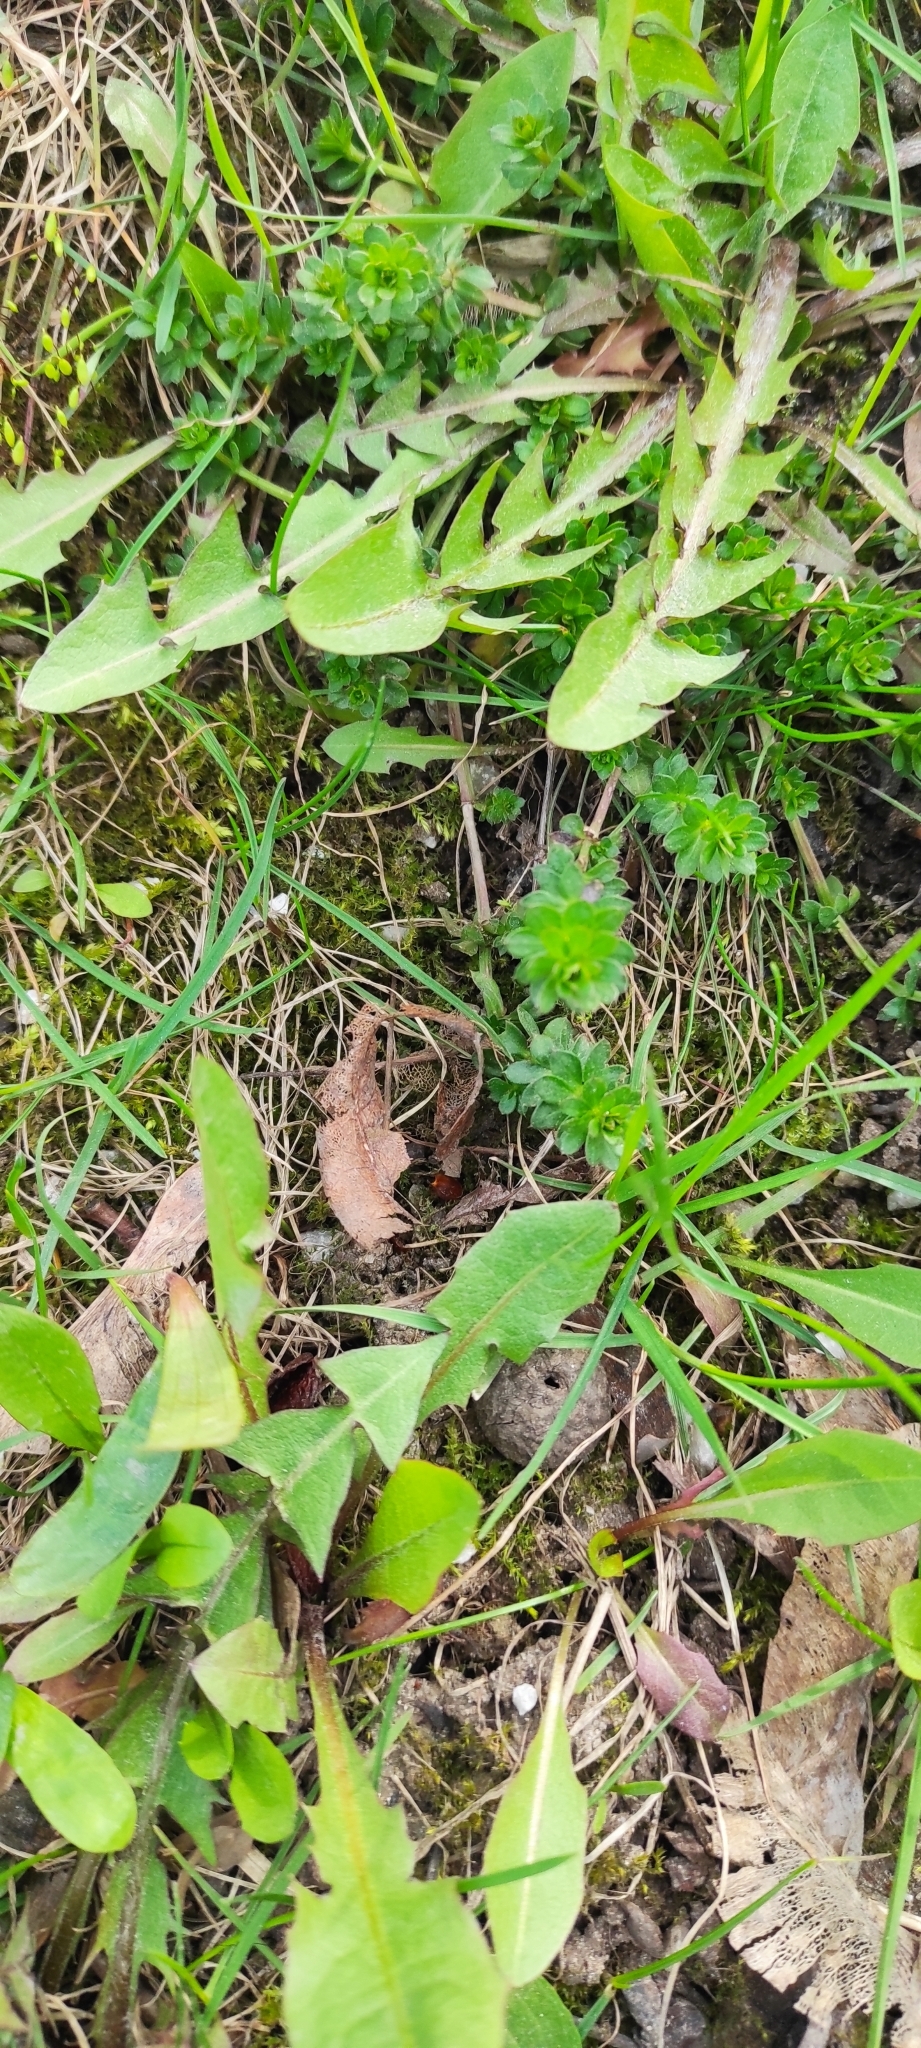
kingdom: Plantae
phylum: Tracheophyta
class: Magnoliopsida
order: Gentianales
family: Rubiaceae
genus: Galium
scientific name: Galium mollugo
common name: Hedge bedstraw
